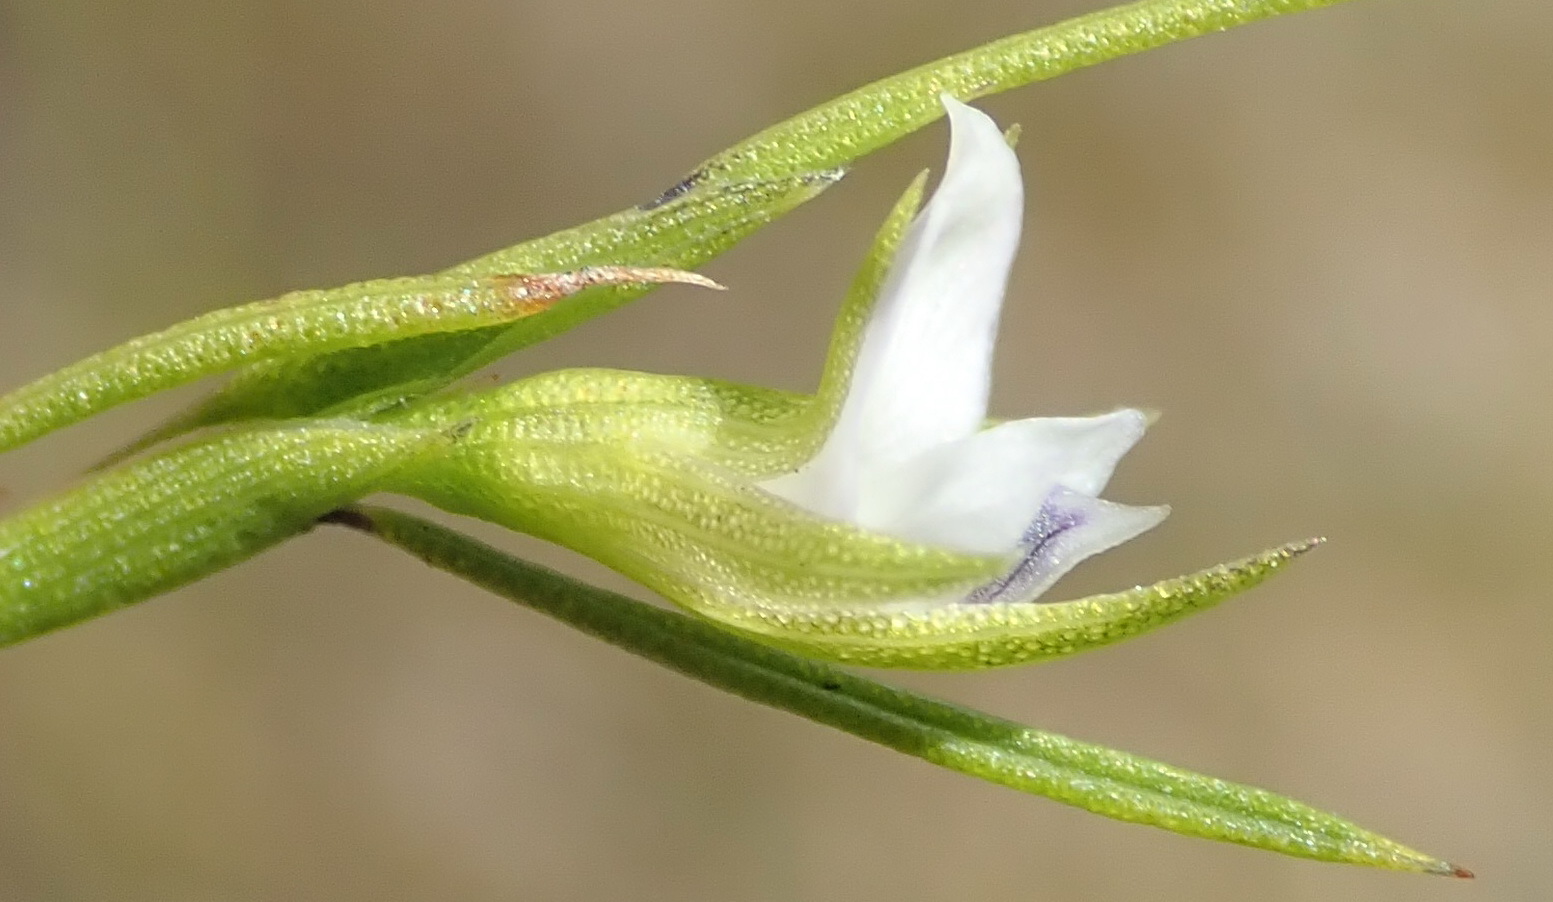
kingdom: Plantae
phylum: Tracheophyta
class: Magnoliopsida
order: Fabales
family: Fabaceae
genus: Psoralea
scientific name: Psoralea
